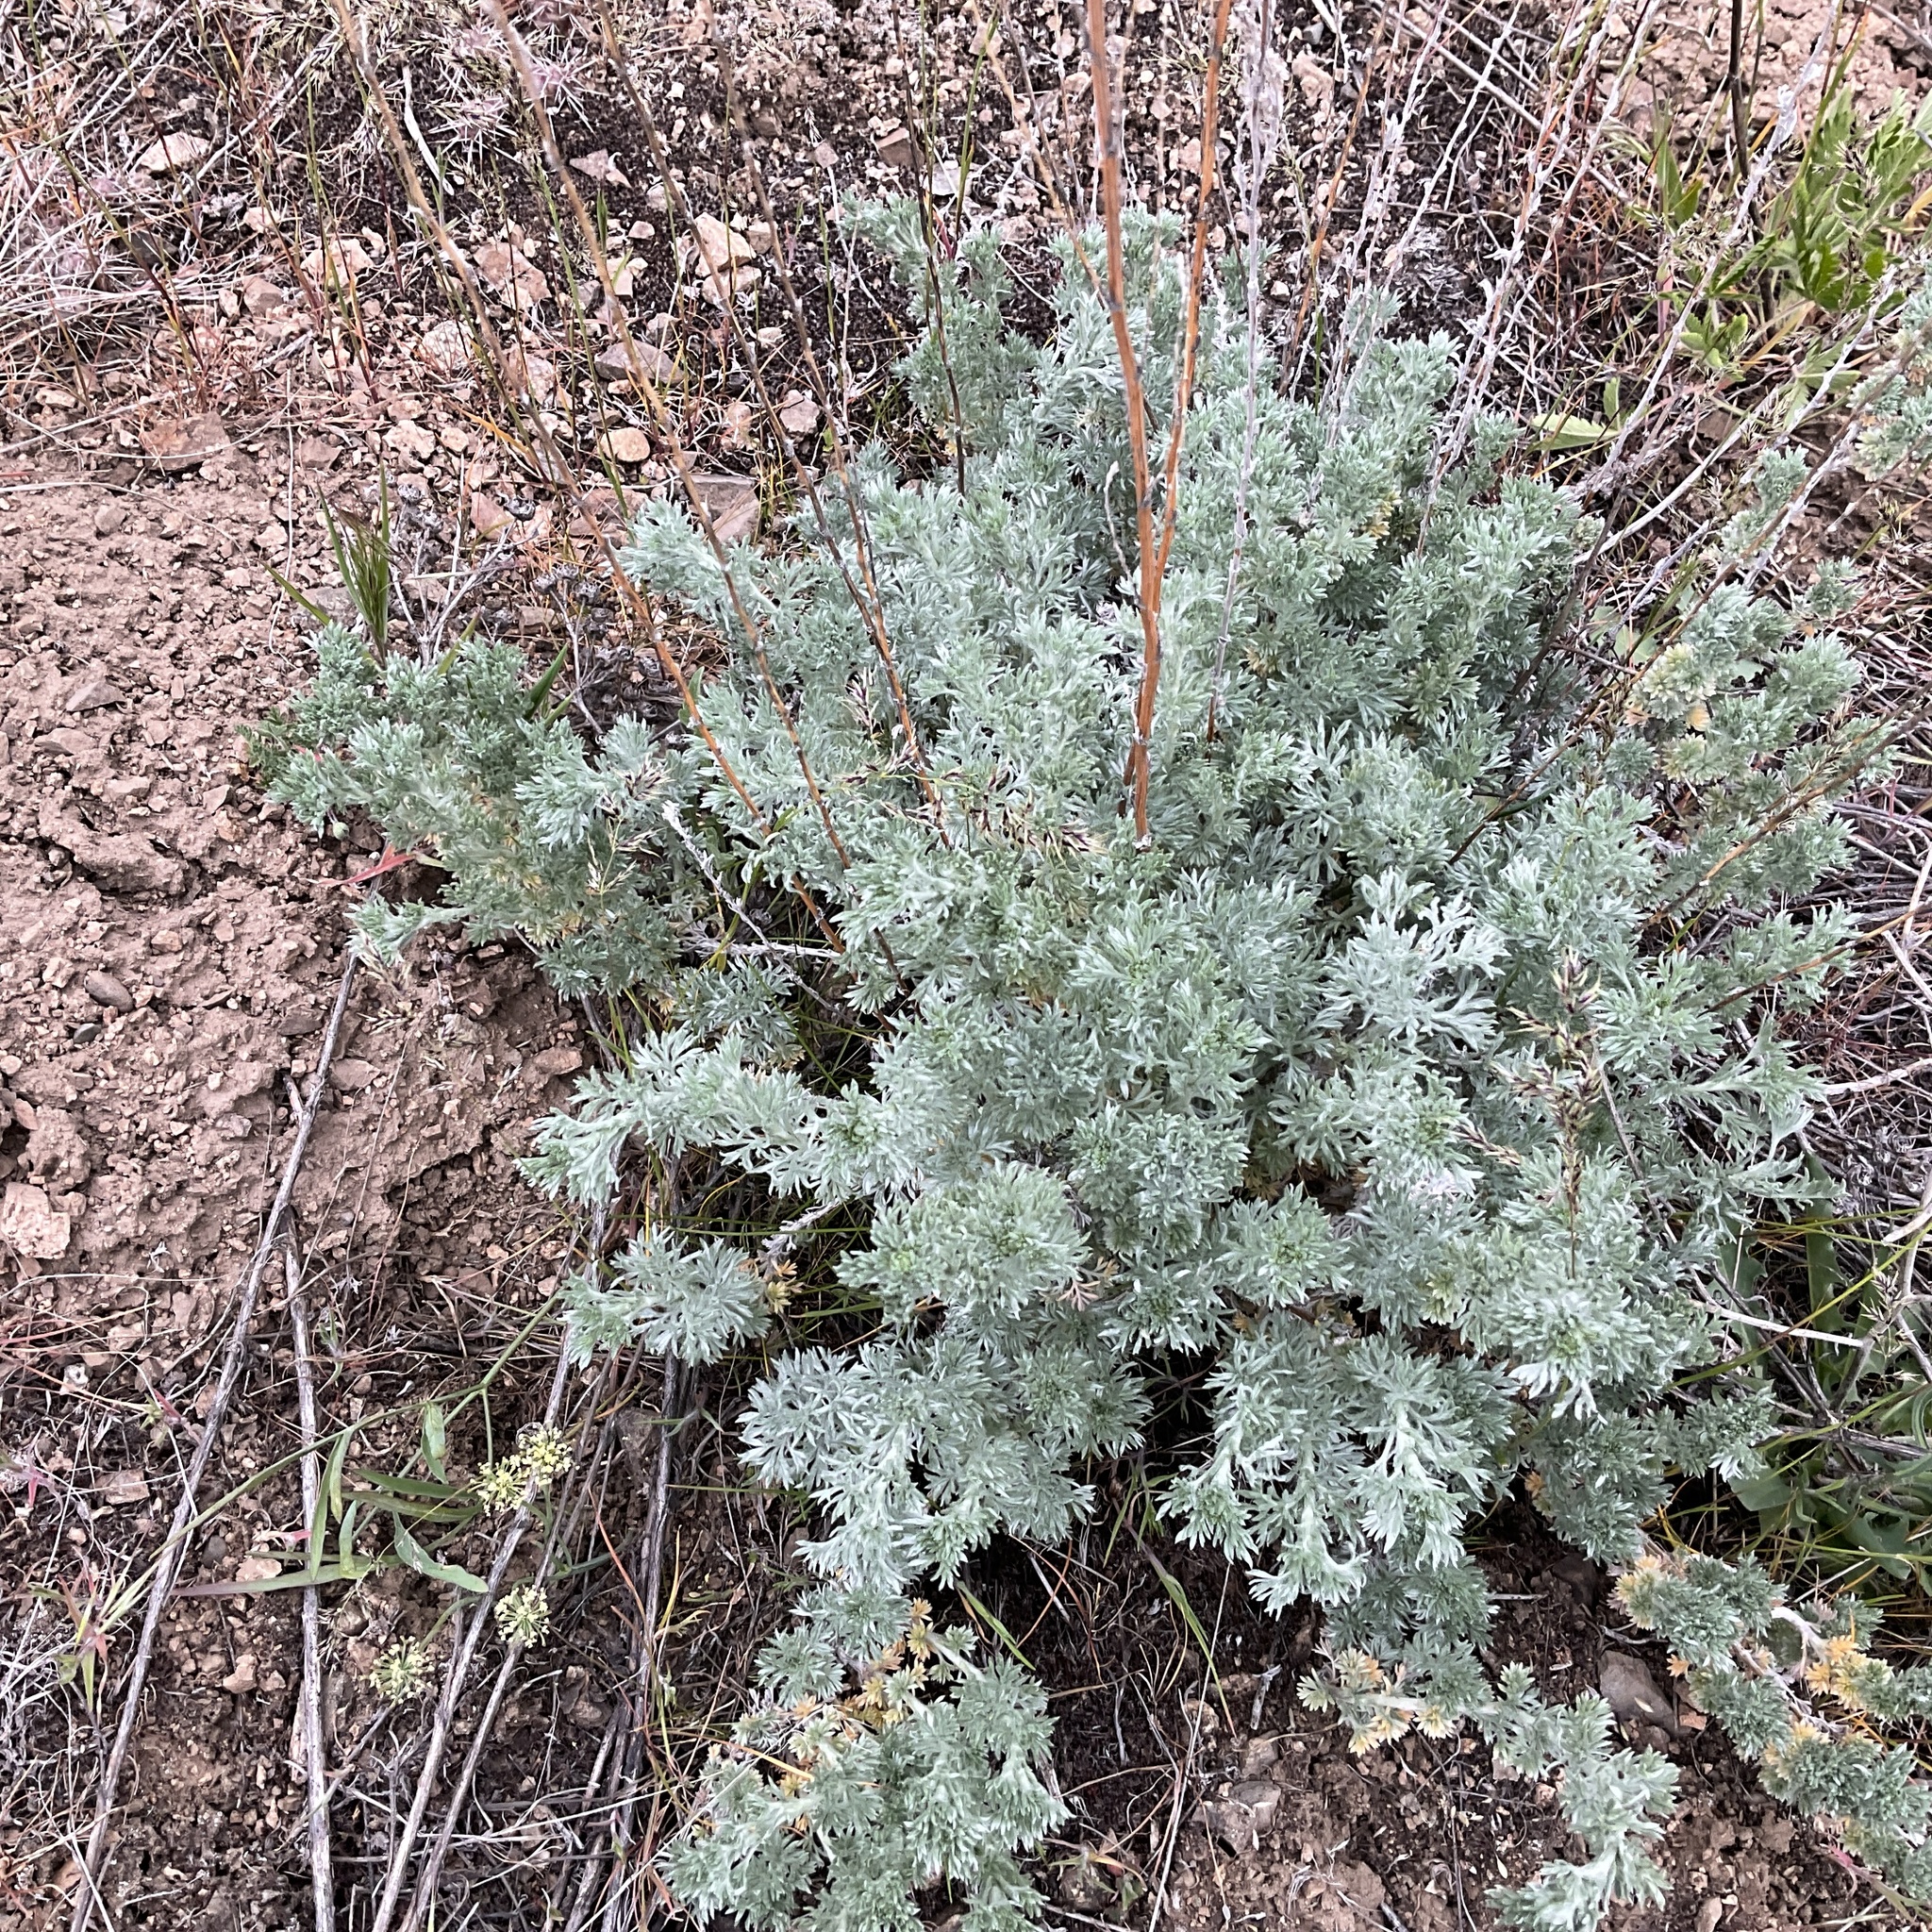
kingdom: Plantae
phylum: Tracheophyta
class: Magnoliopsida
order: Asterales
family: Asteraceae
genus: Artemisia
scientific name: Artemisia frigida
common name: Prairie sagewort
